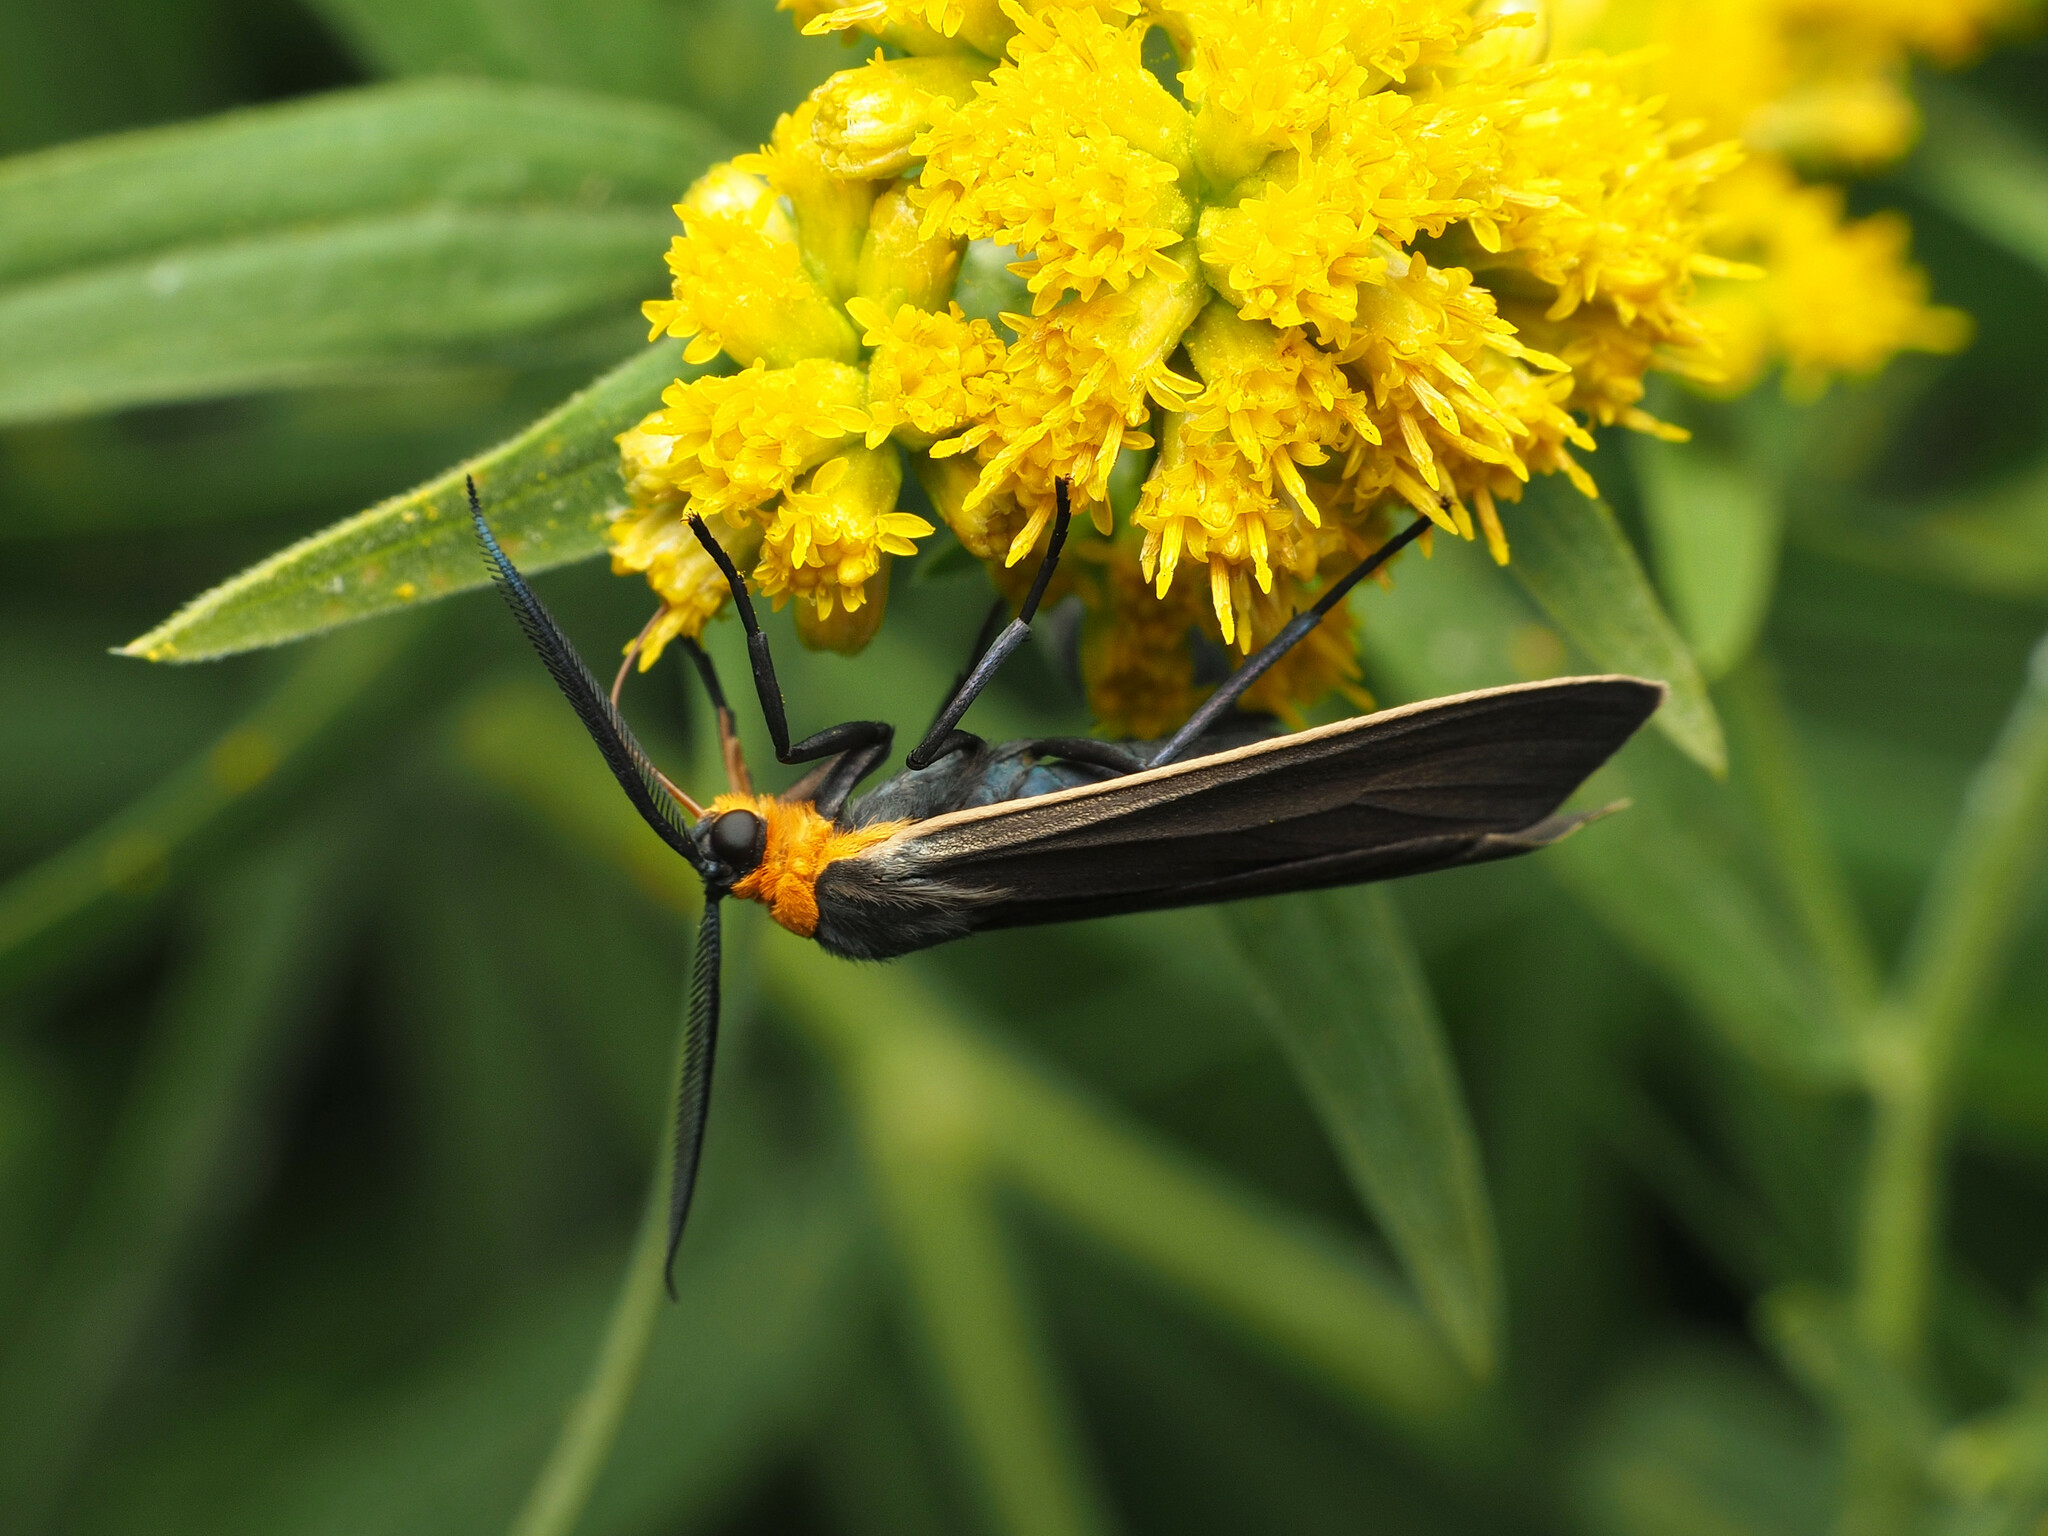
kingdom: Animalia
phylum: Arthropoda
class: Insecta
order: Lepidoptera
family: Erebidae
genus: Cisseps
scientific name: Cisseps fulvicollis
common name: Yellow-collared scape moth
